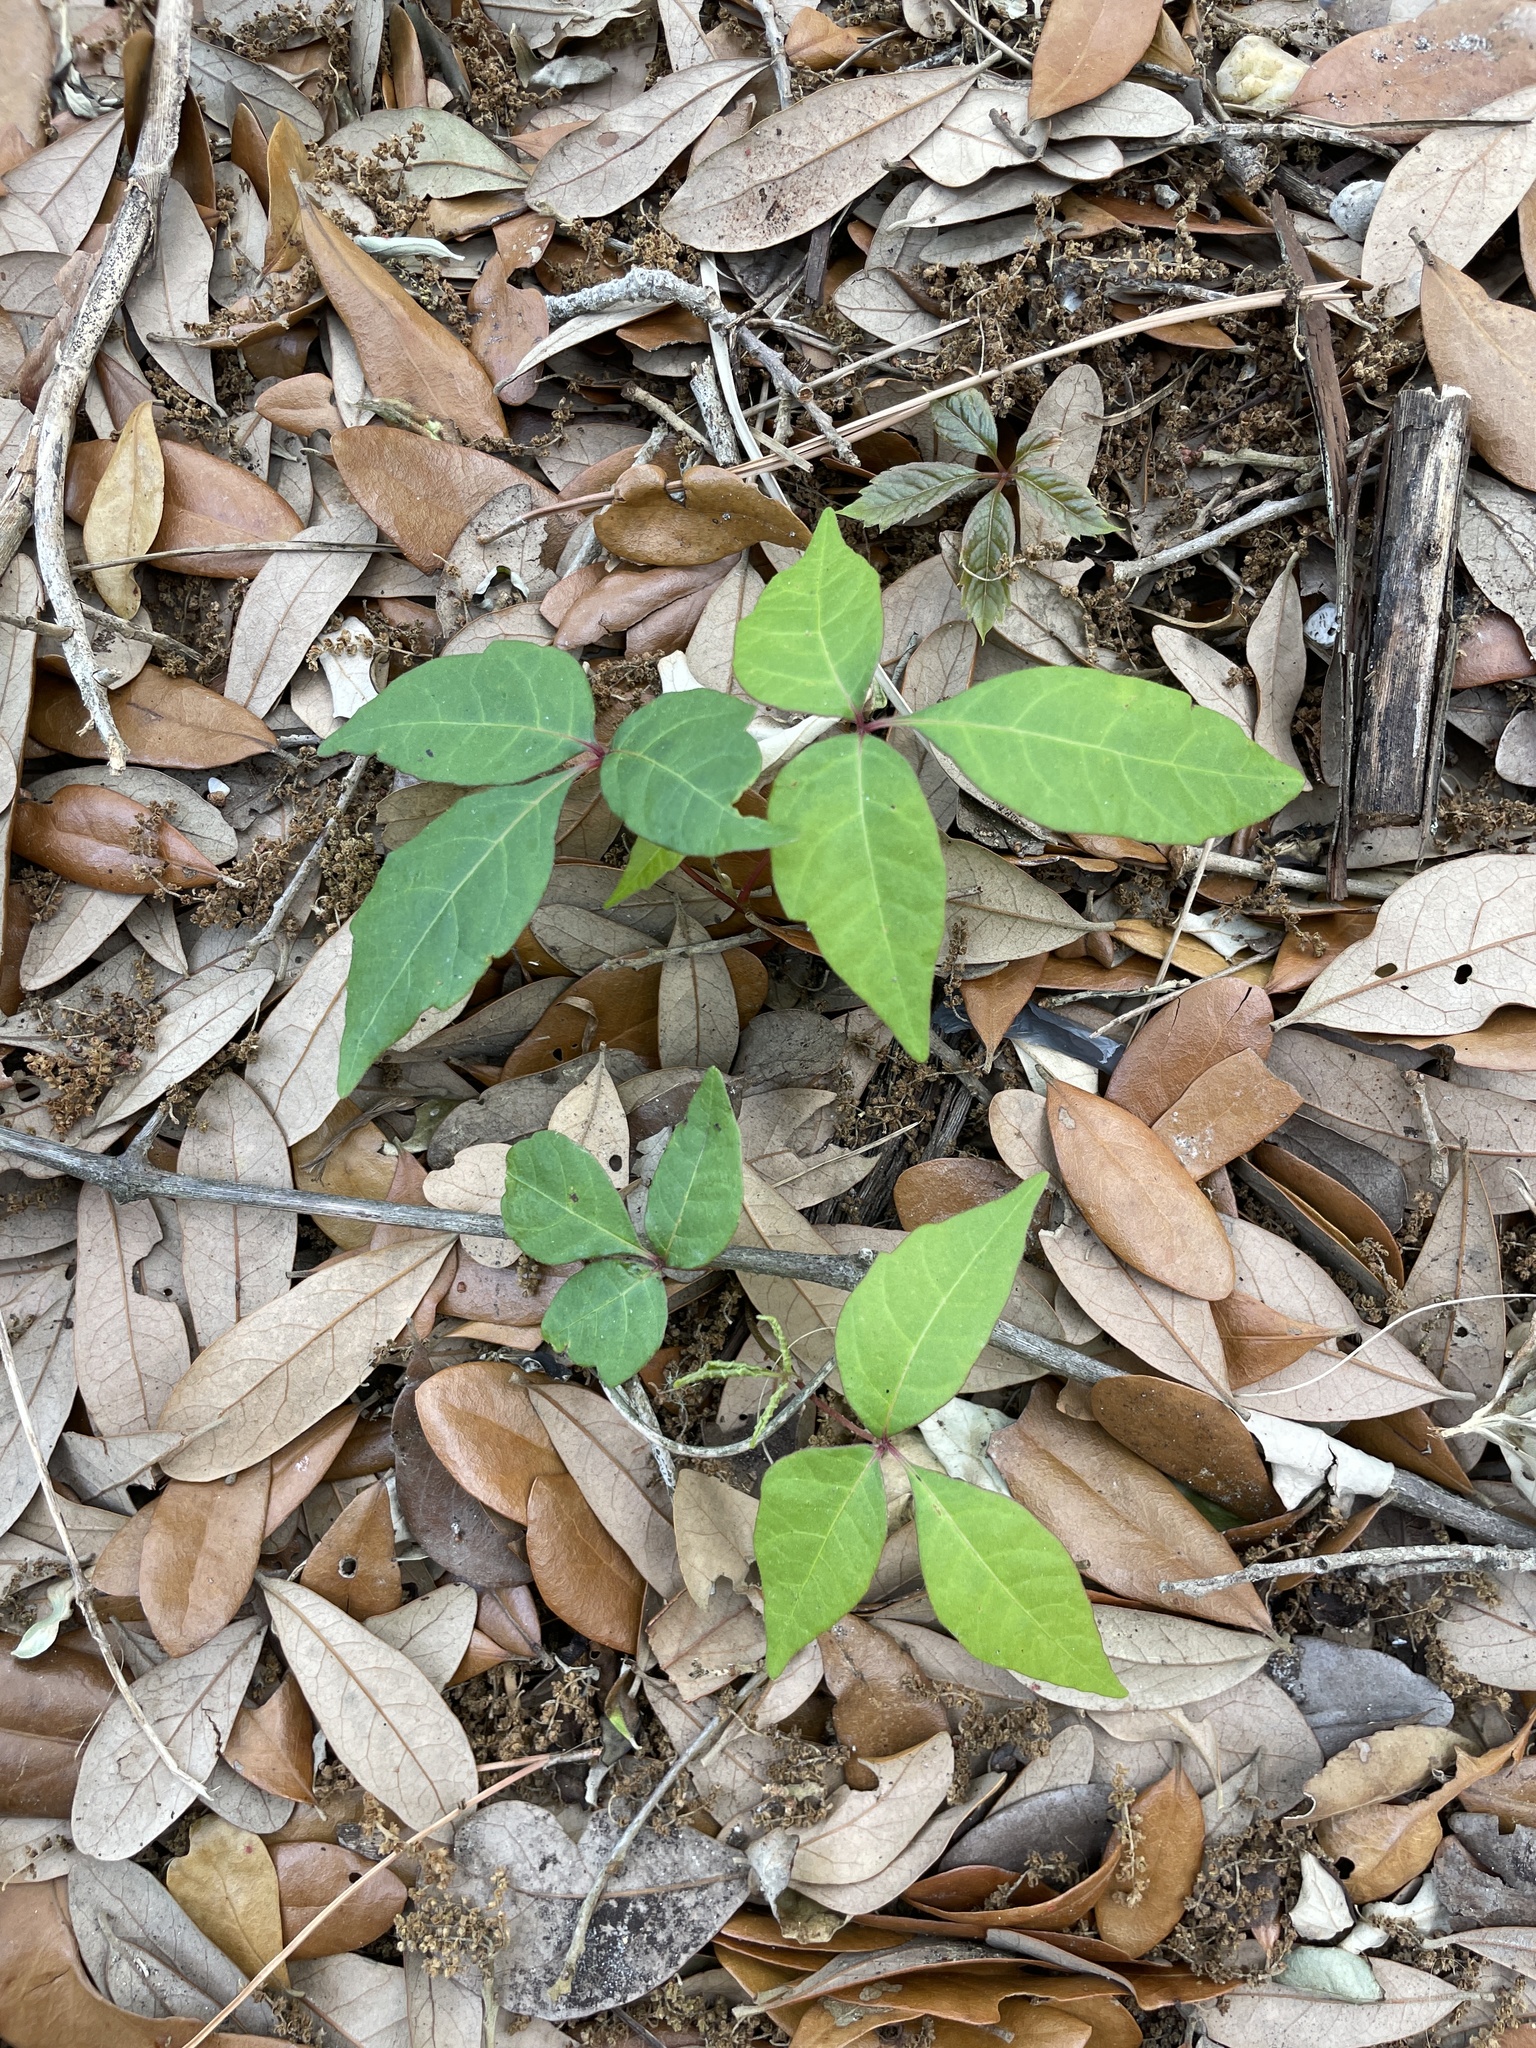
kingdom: Plantae
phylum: Tracheophyta
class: Magnoliopsida
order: Sapindales
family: Anacardiaceae
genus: Toxicodendron
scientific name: Toxicodendron radicans
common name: Poison ivy
